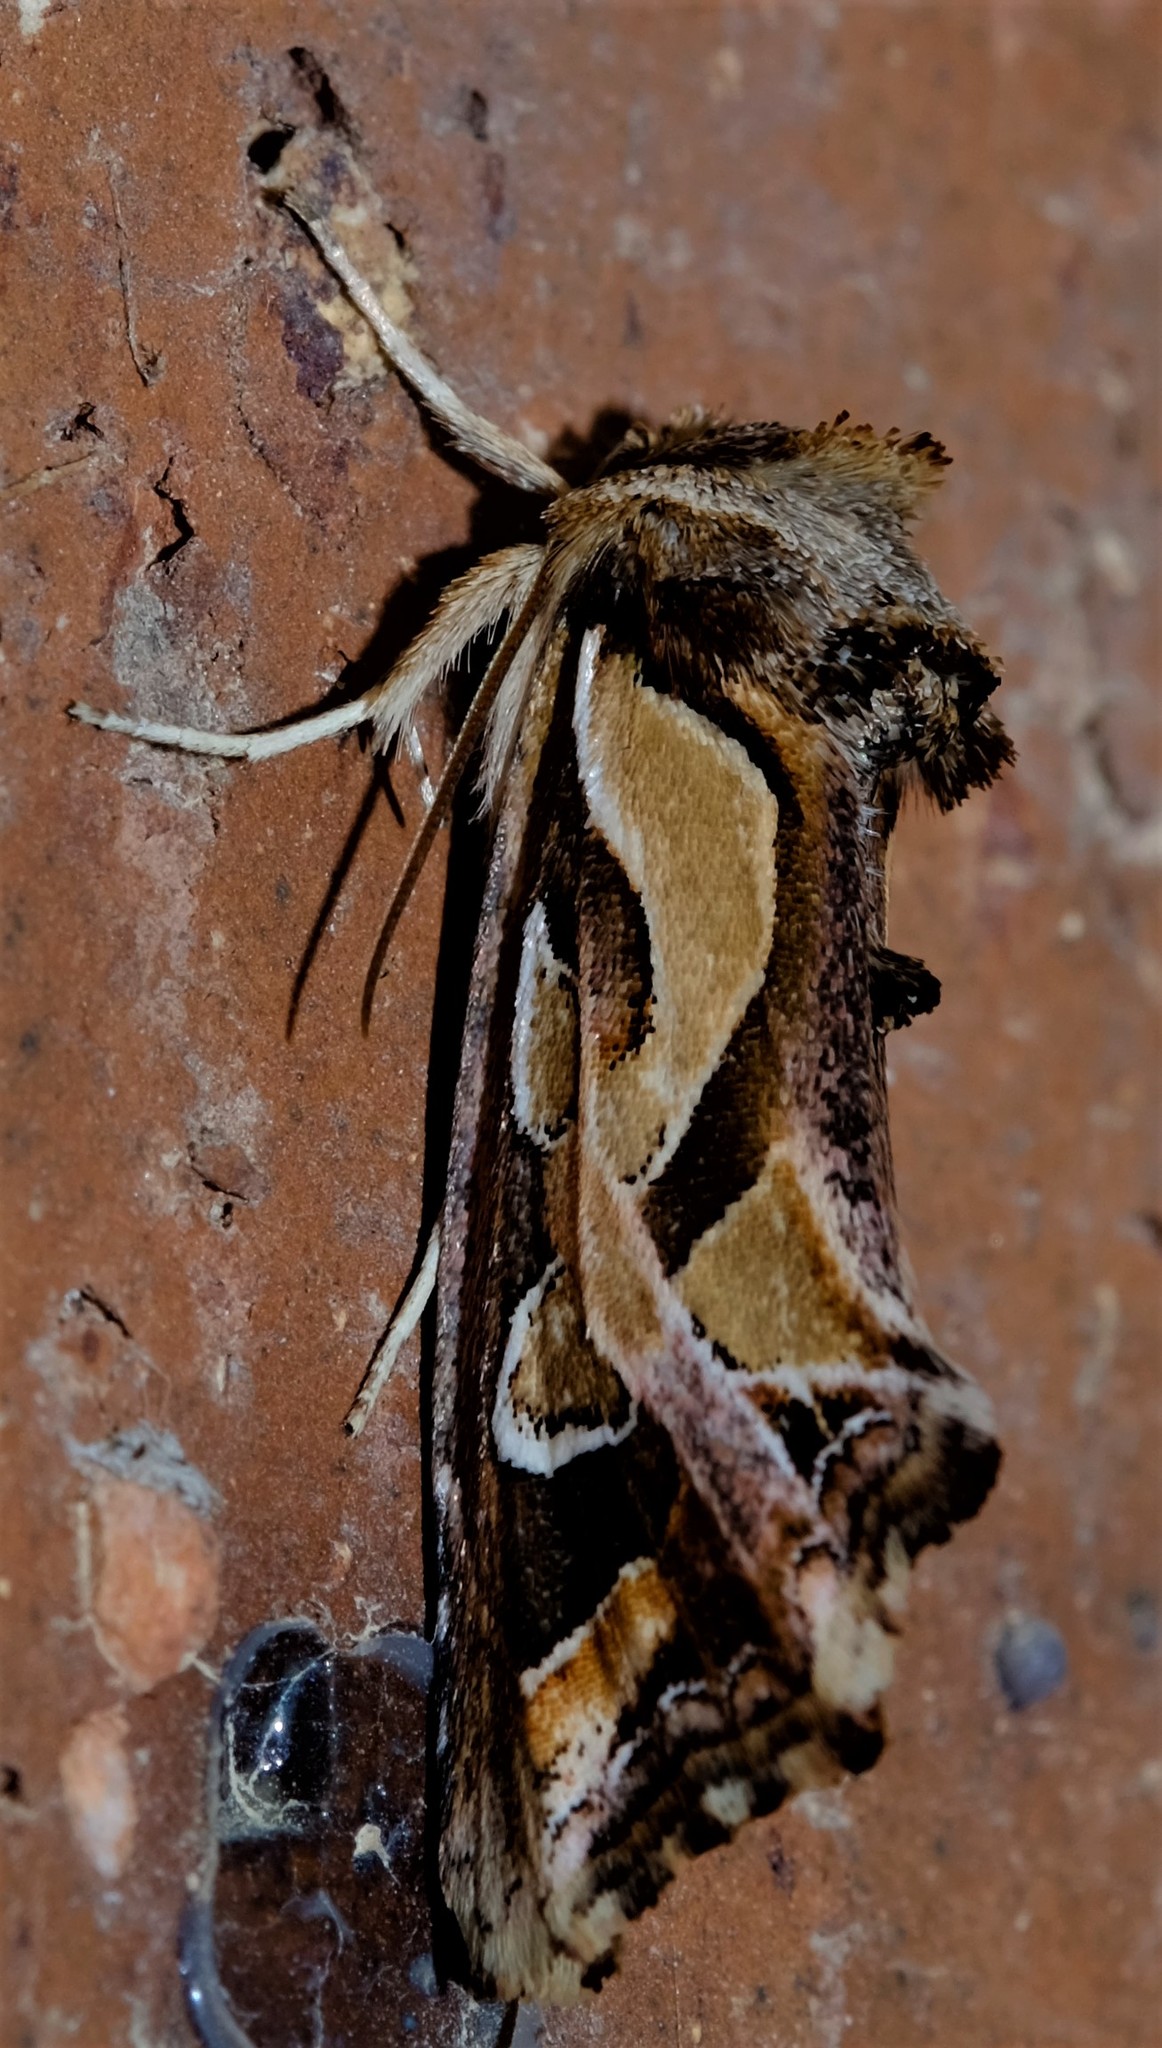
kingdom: Animalia
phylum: Arthropoda
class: Insecta
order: Lepidoptera
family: Noctuidae
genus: Cosmodes
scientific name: Cosmodes elegans
